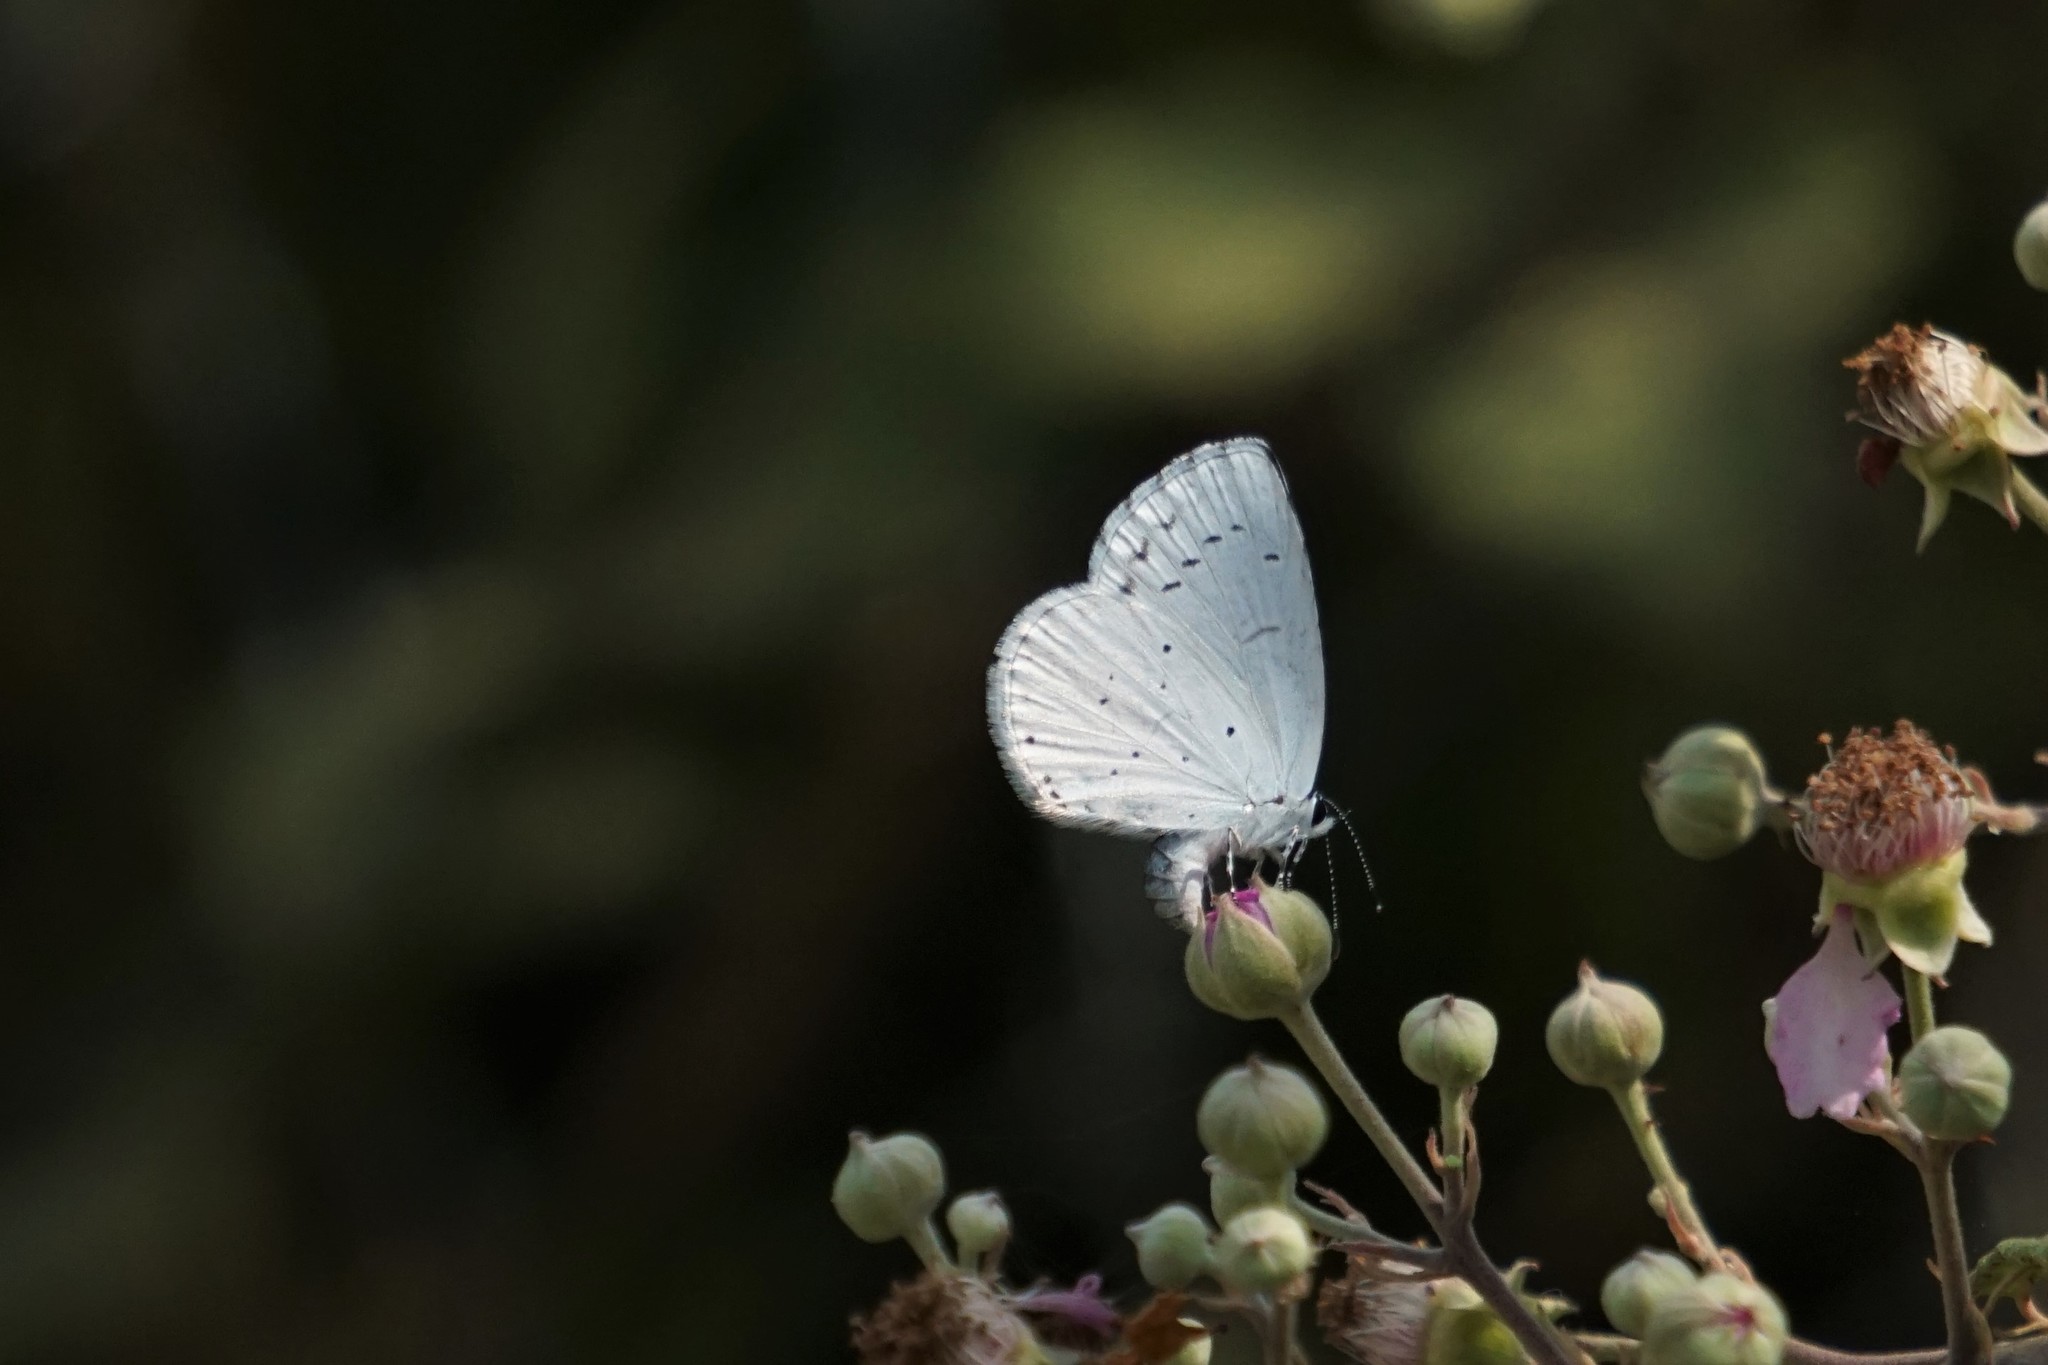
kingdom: Animalia
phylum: Arthropoda
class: Insecta
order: Lepidoptera
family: Lycaenidae
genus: Celastrina
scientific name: Celastrina argiolus
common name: Holly blue
